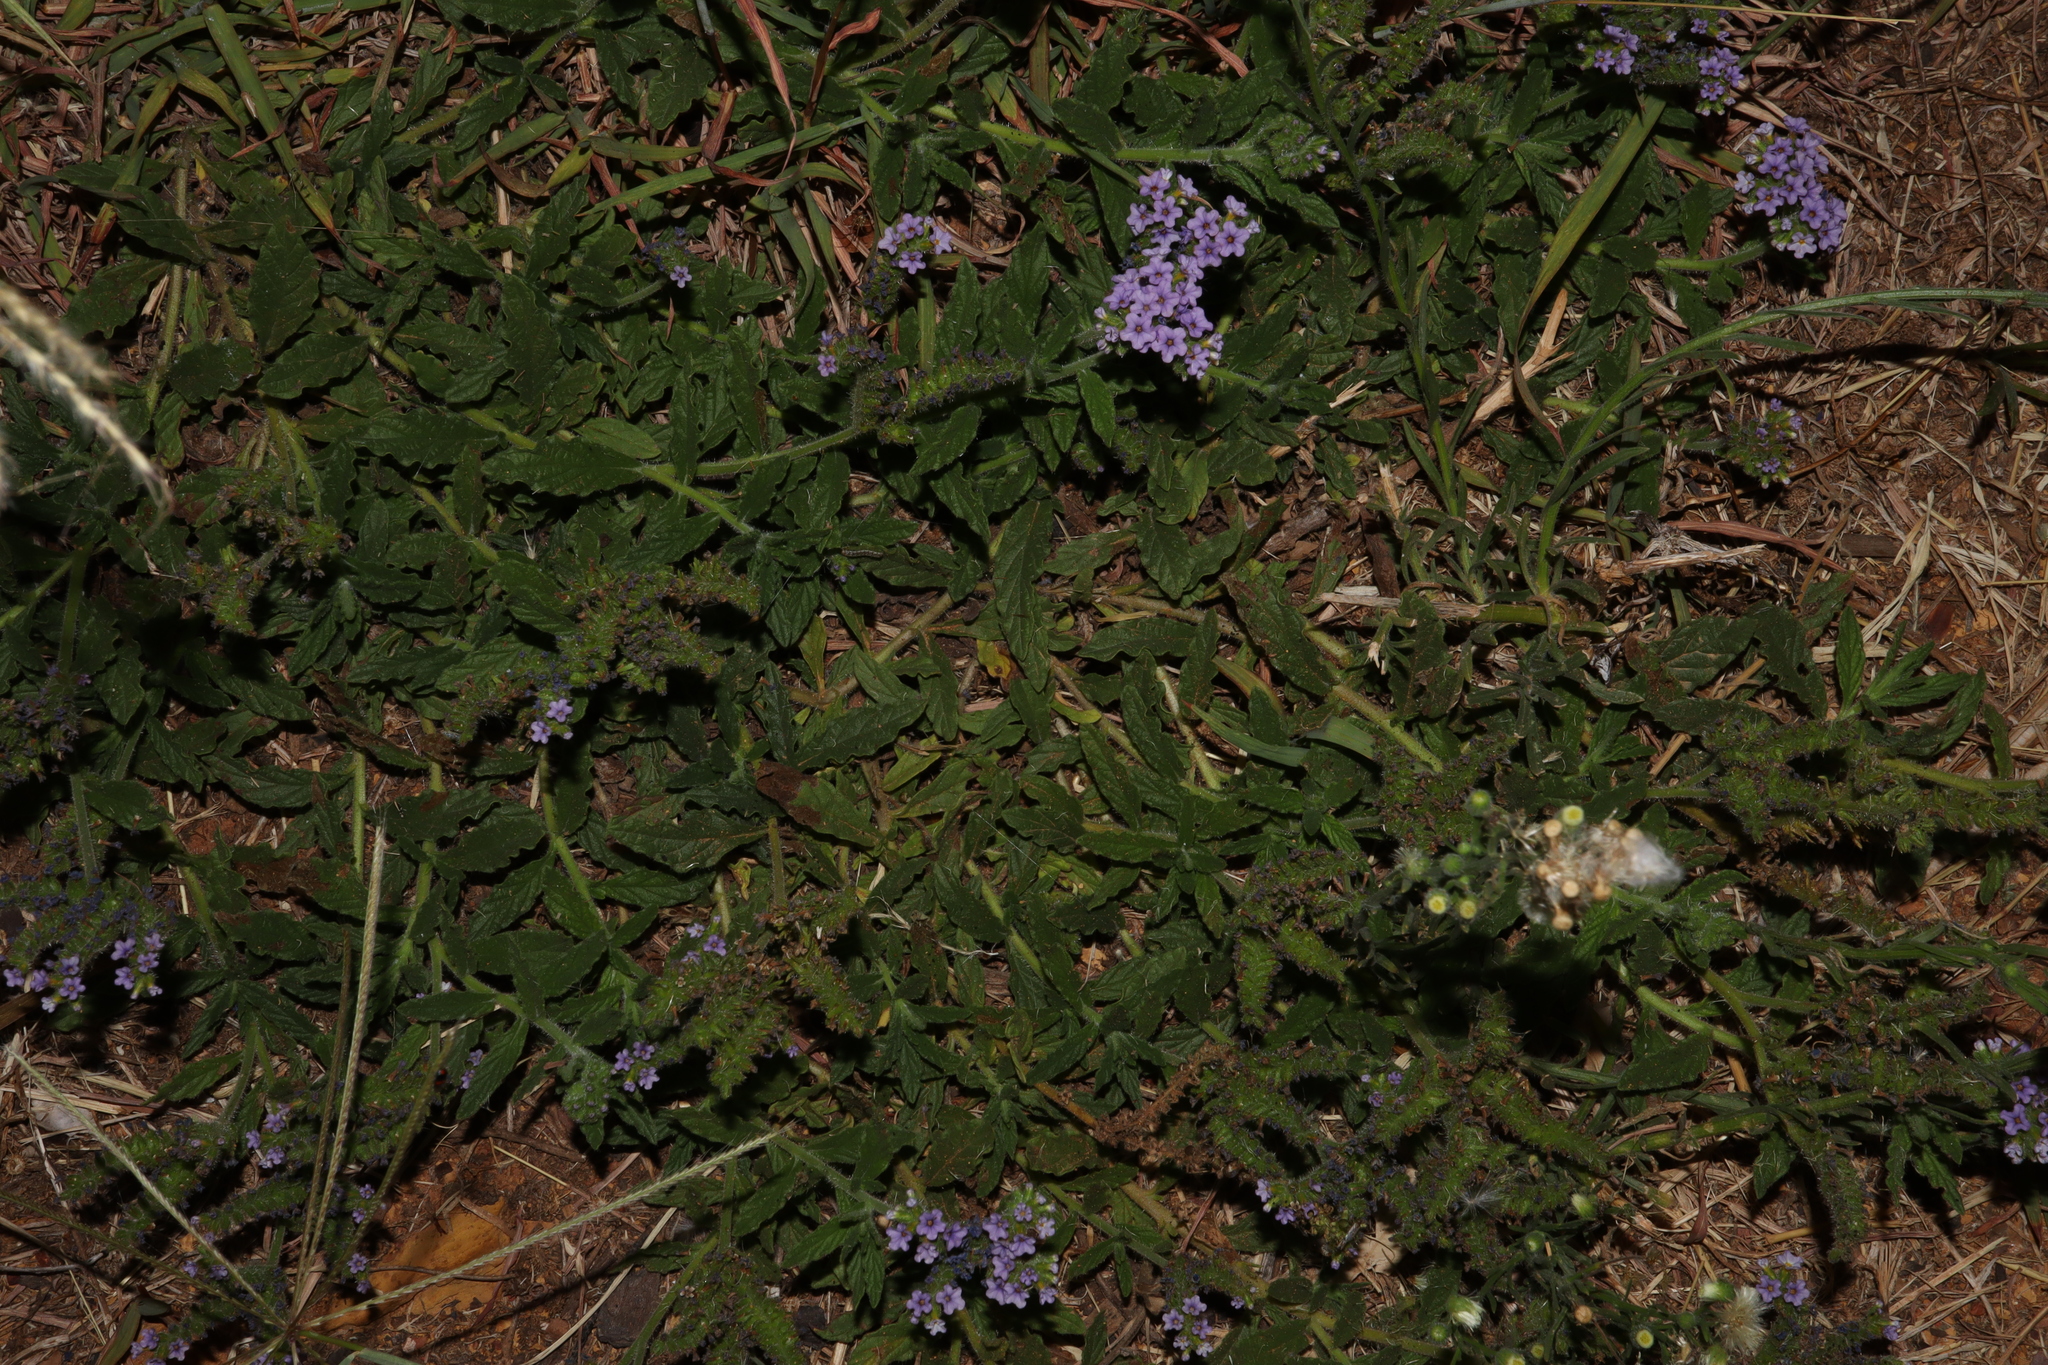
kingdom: Plantae
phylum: Tracheophyta
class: Magnoliopsida
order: Boraginales
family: Heliotropiaceae
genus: Heliotropium
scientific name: Heliotropium amplexicaule
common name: Clasping heliotrope
